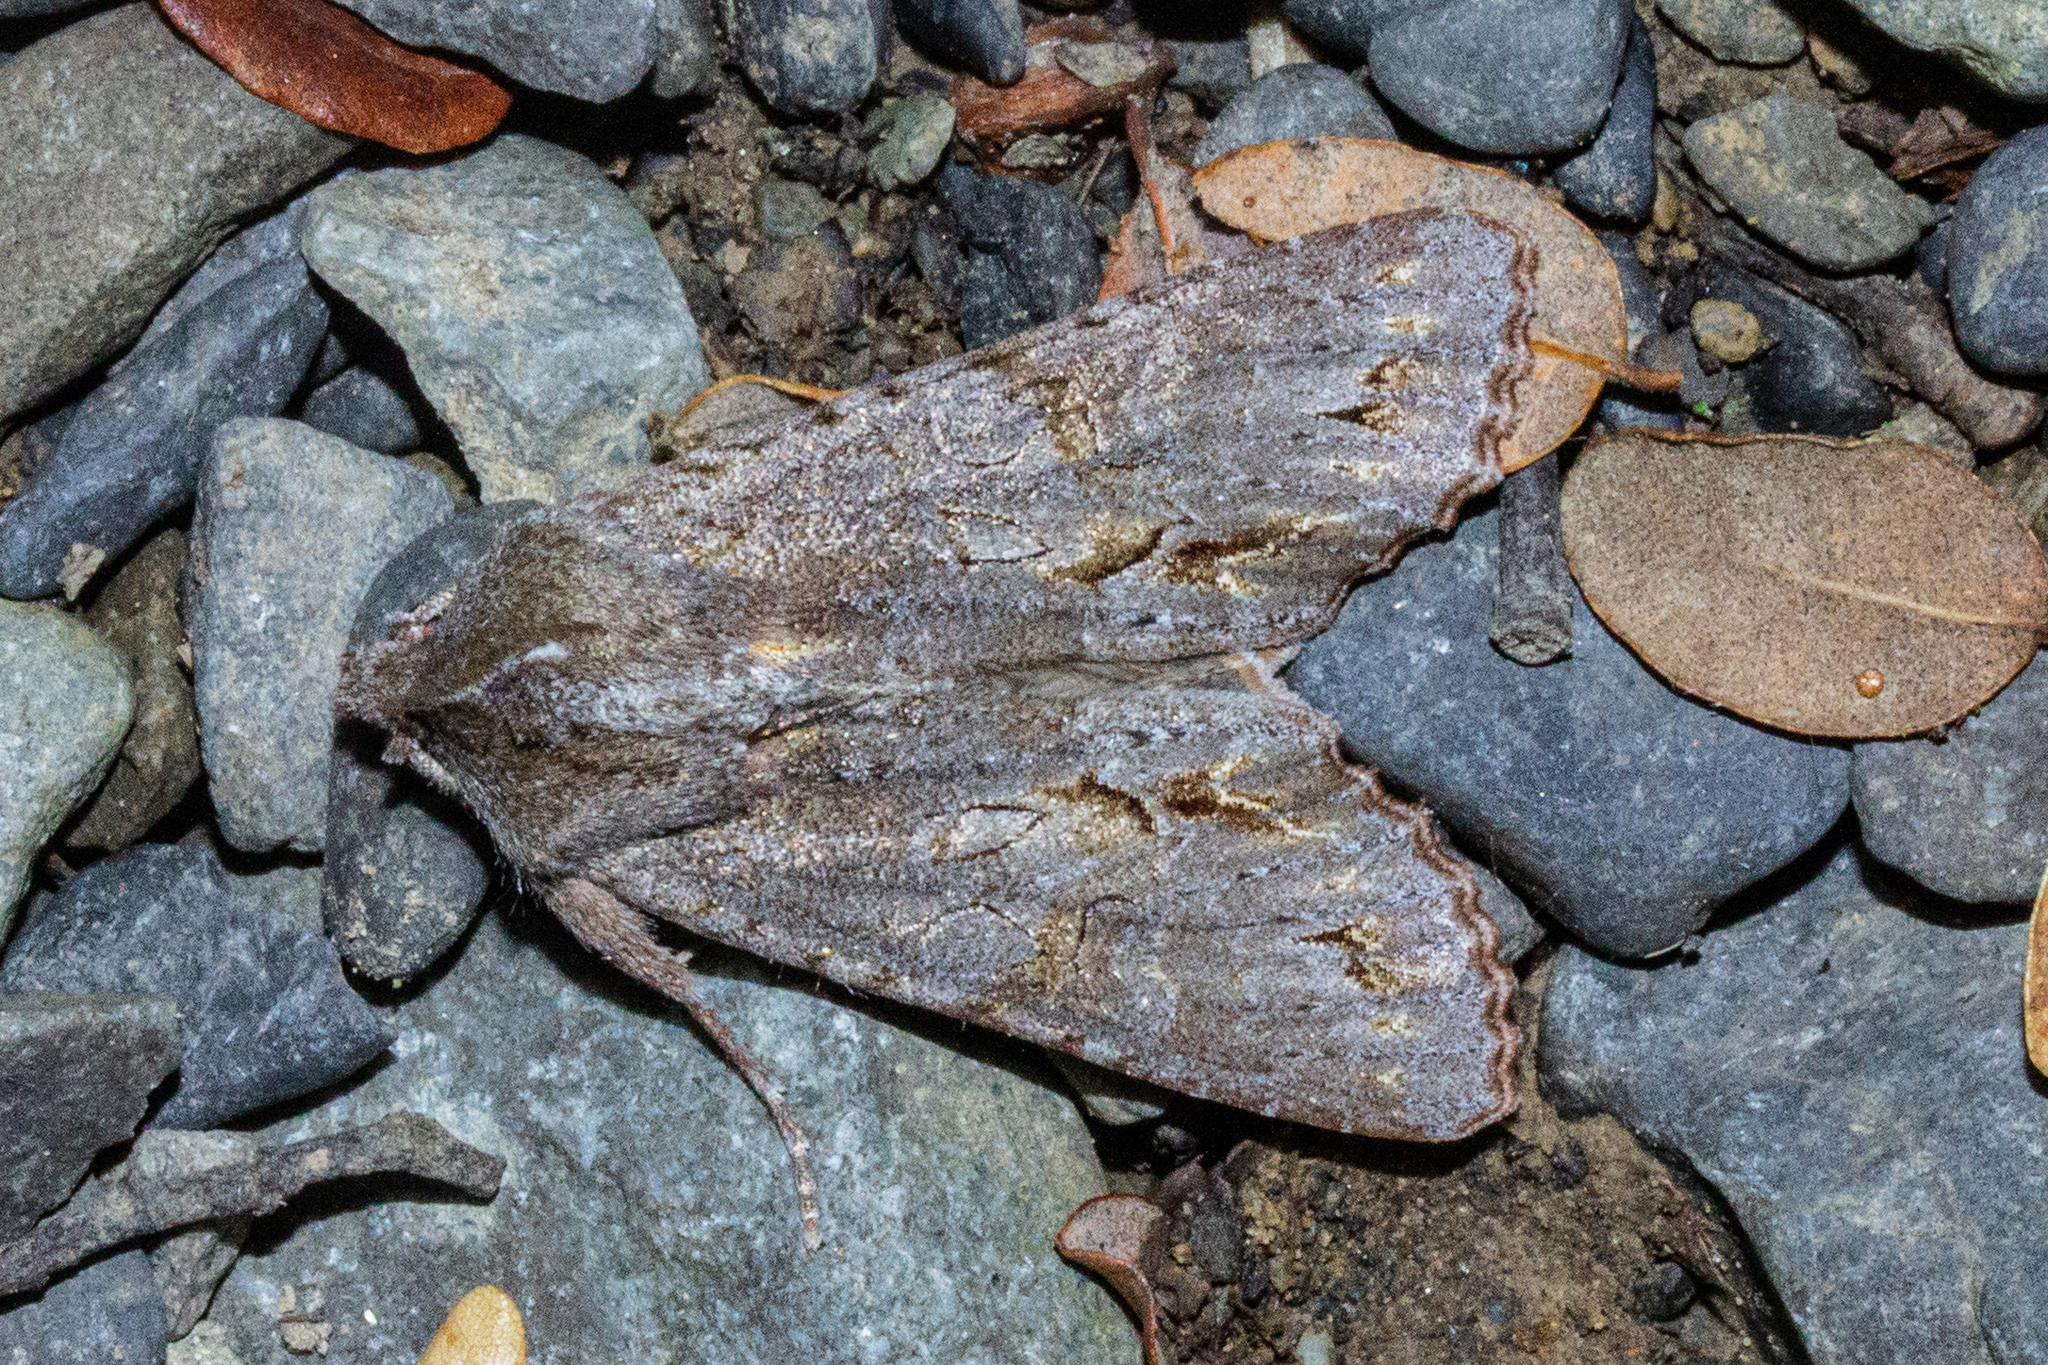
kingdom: Animalia
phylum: Arthropoda
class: Insecta
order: Lepidoptera
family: Noctuidae
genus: Ichneutica
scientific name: Ichneutica
